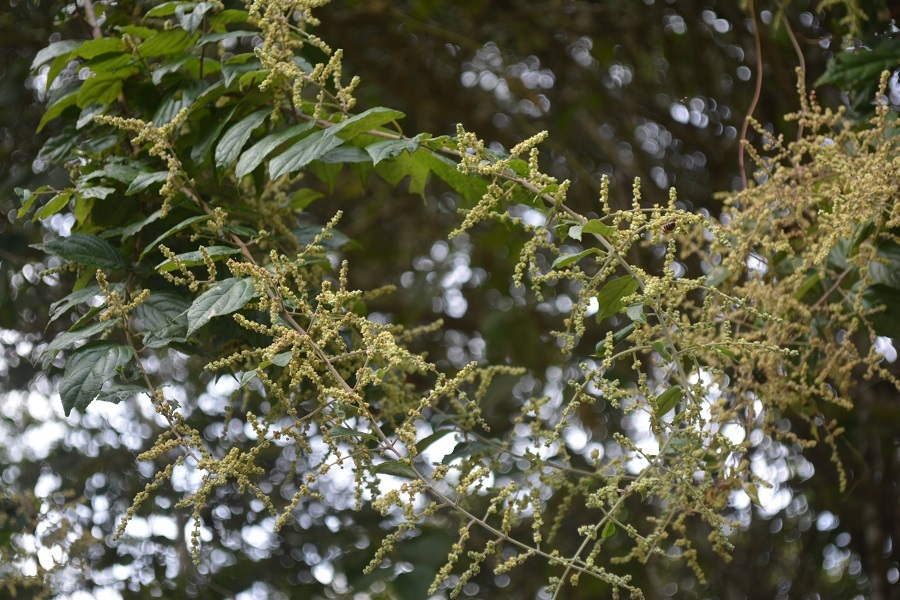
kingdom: Plantae
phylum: Tracheophyta
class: Magnoliopsida
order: Boraginales
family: Cordiaceae
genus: Varronia
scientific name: Varronia spinescens
